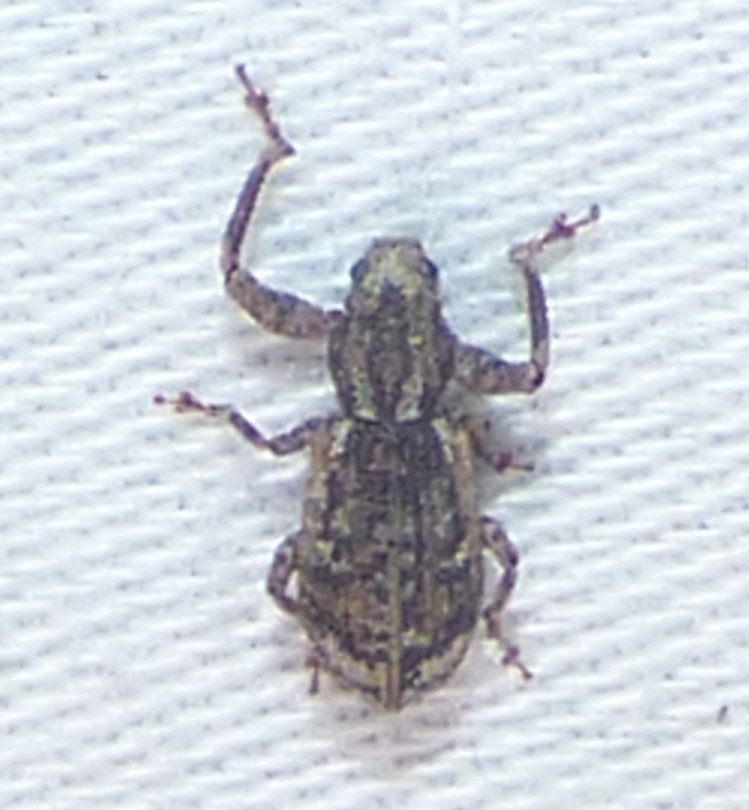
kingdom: Animalia
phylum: Arthropoda
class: Insecta
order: Coleoptera
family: Curculionidae
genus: Pandeleteius
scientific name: Pandeleteius hilaris
